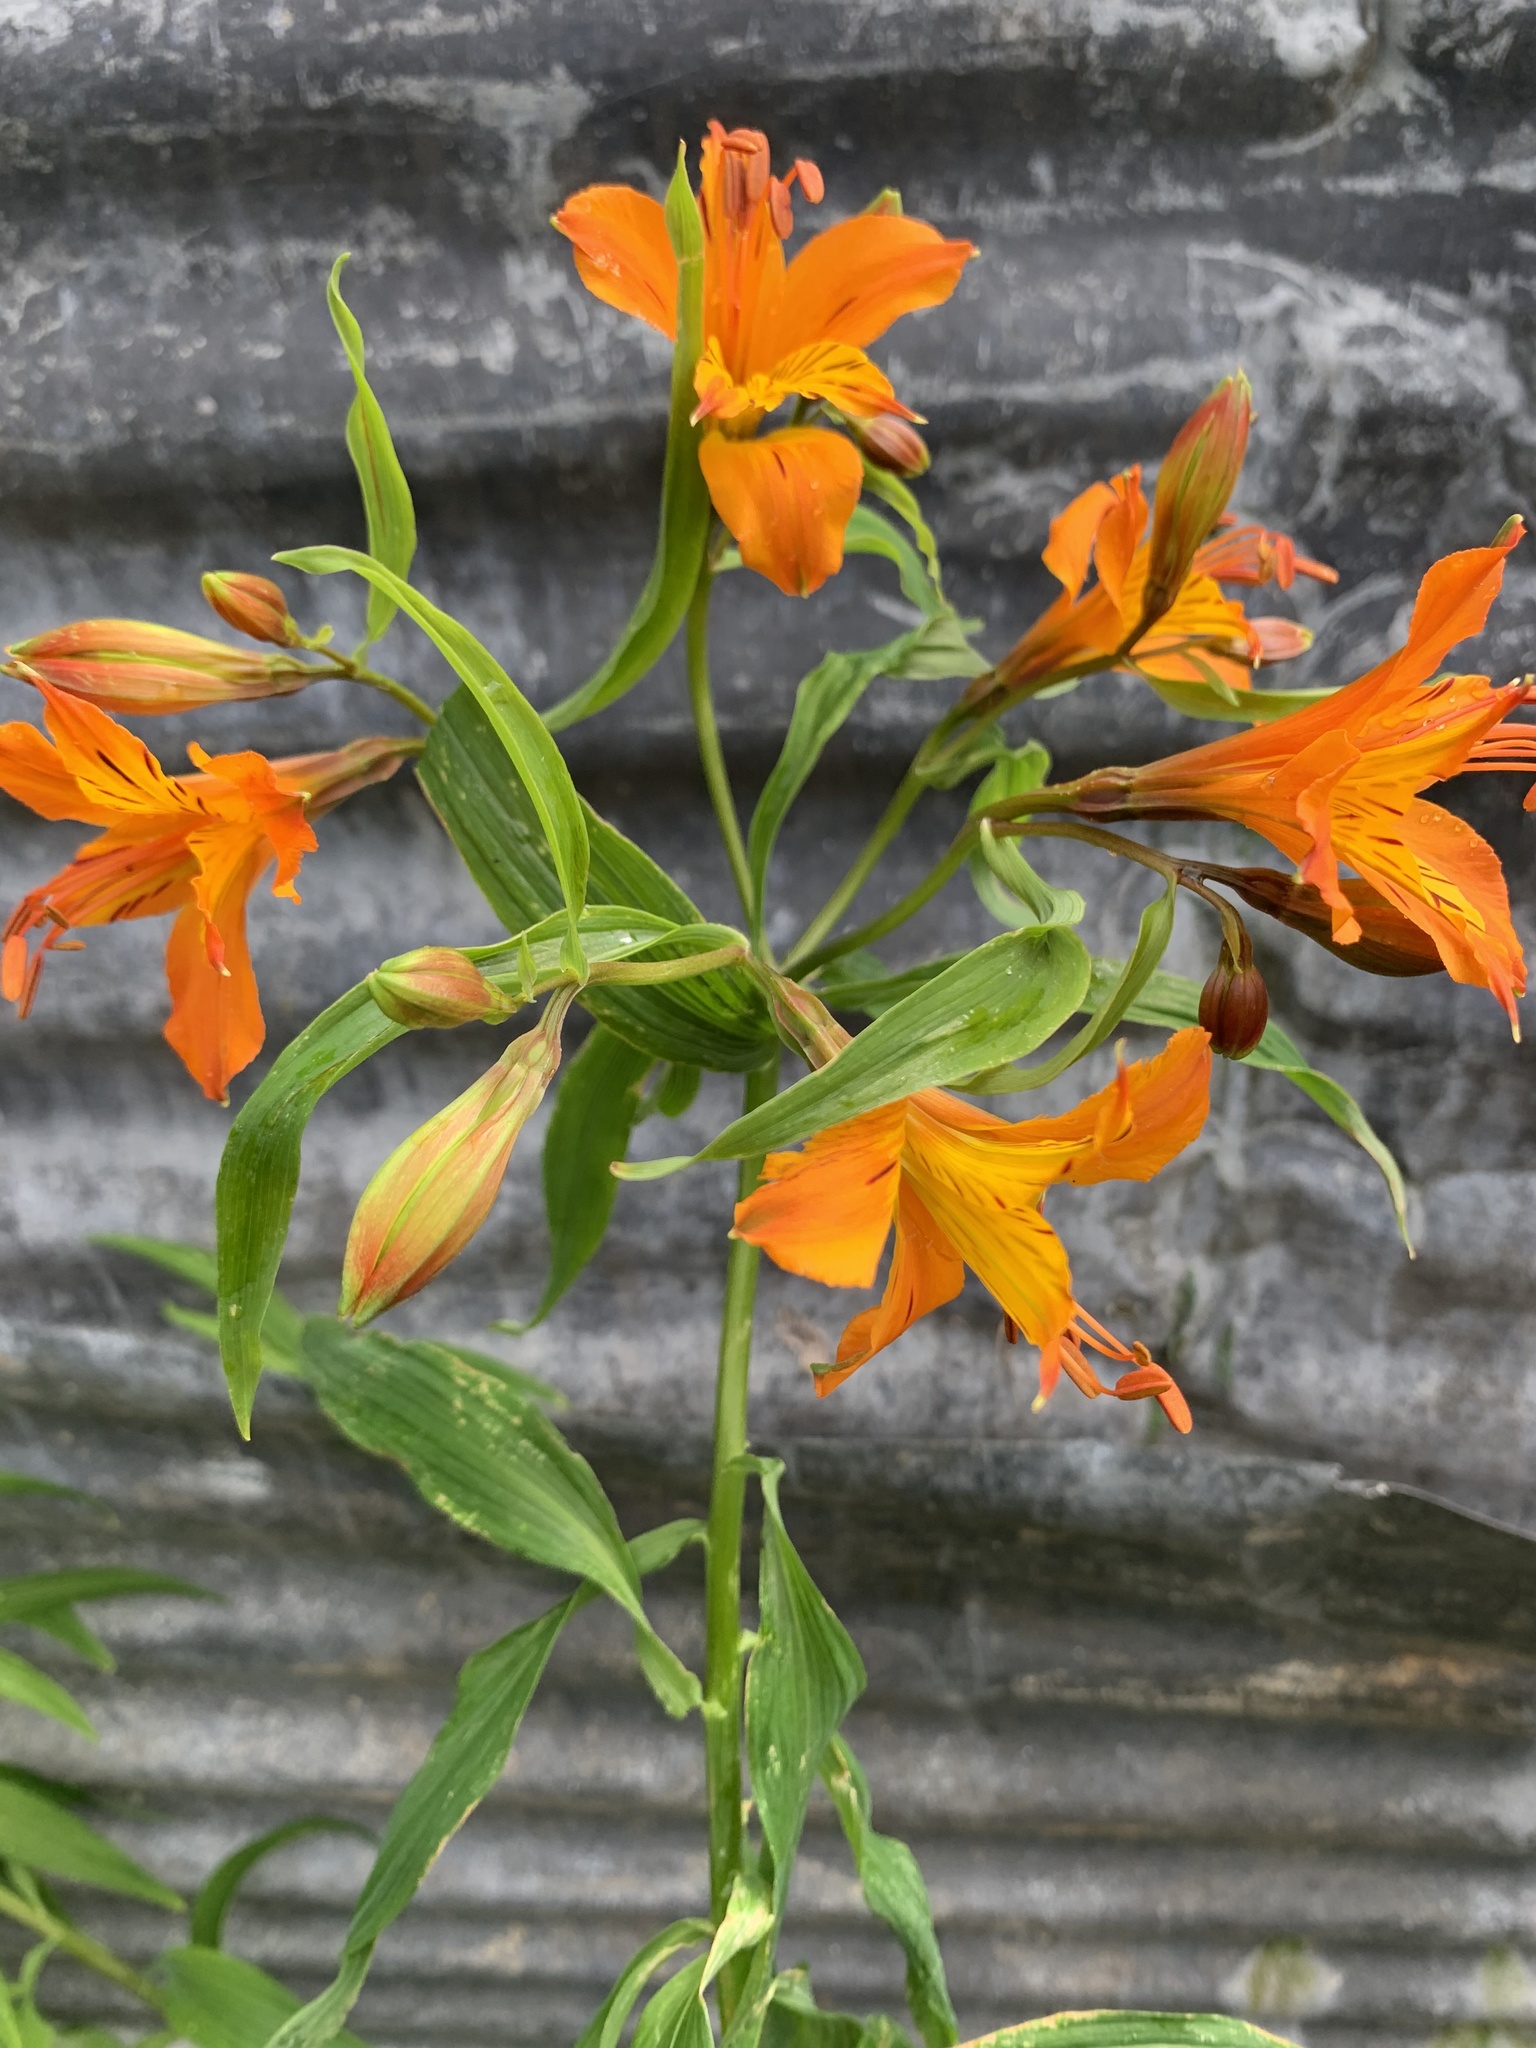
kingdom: Plantae
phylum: Tracheophyta
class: Liliopsida
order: Liliales
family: Alstroemeriaceae
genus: Alstroemeria
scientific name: Alstroemeria aurea
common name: Peruvian lily
